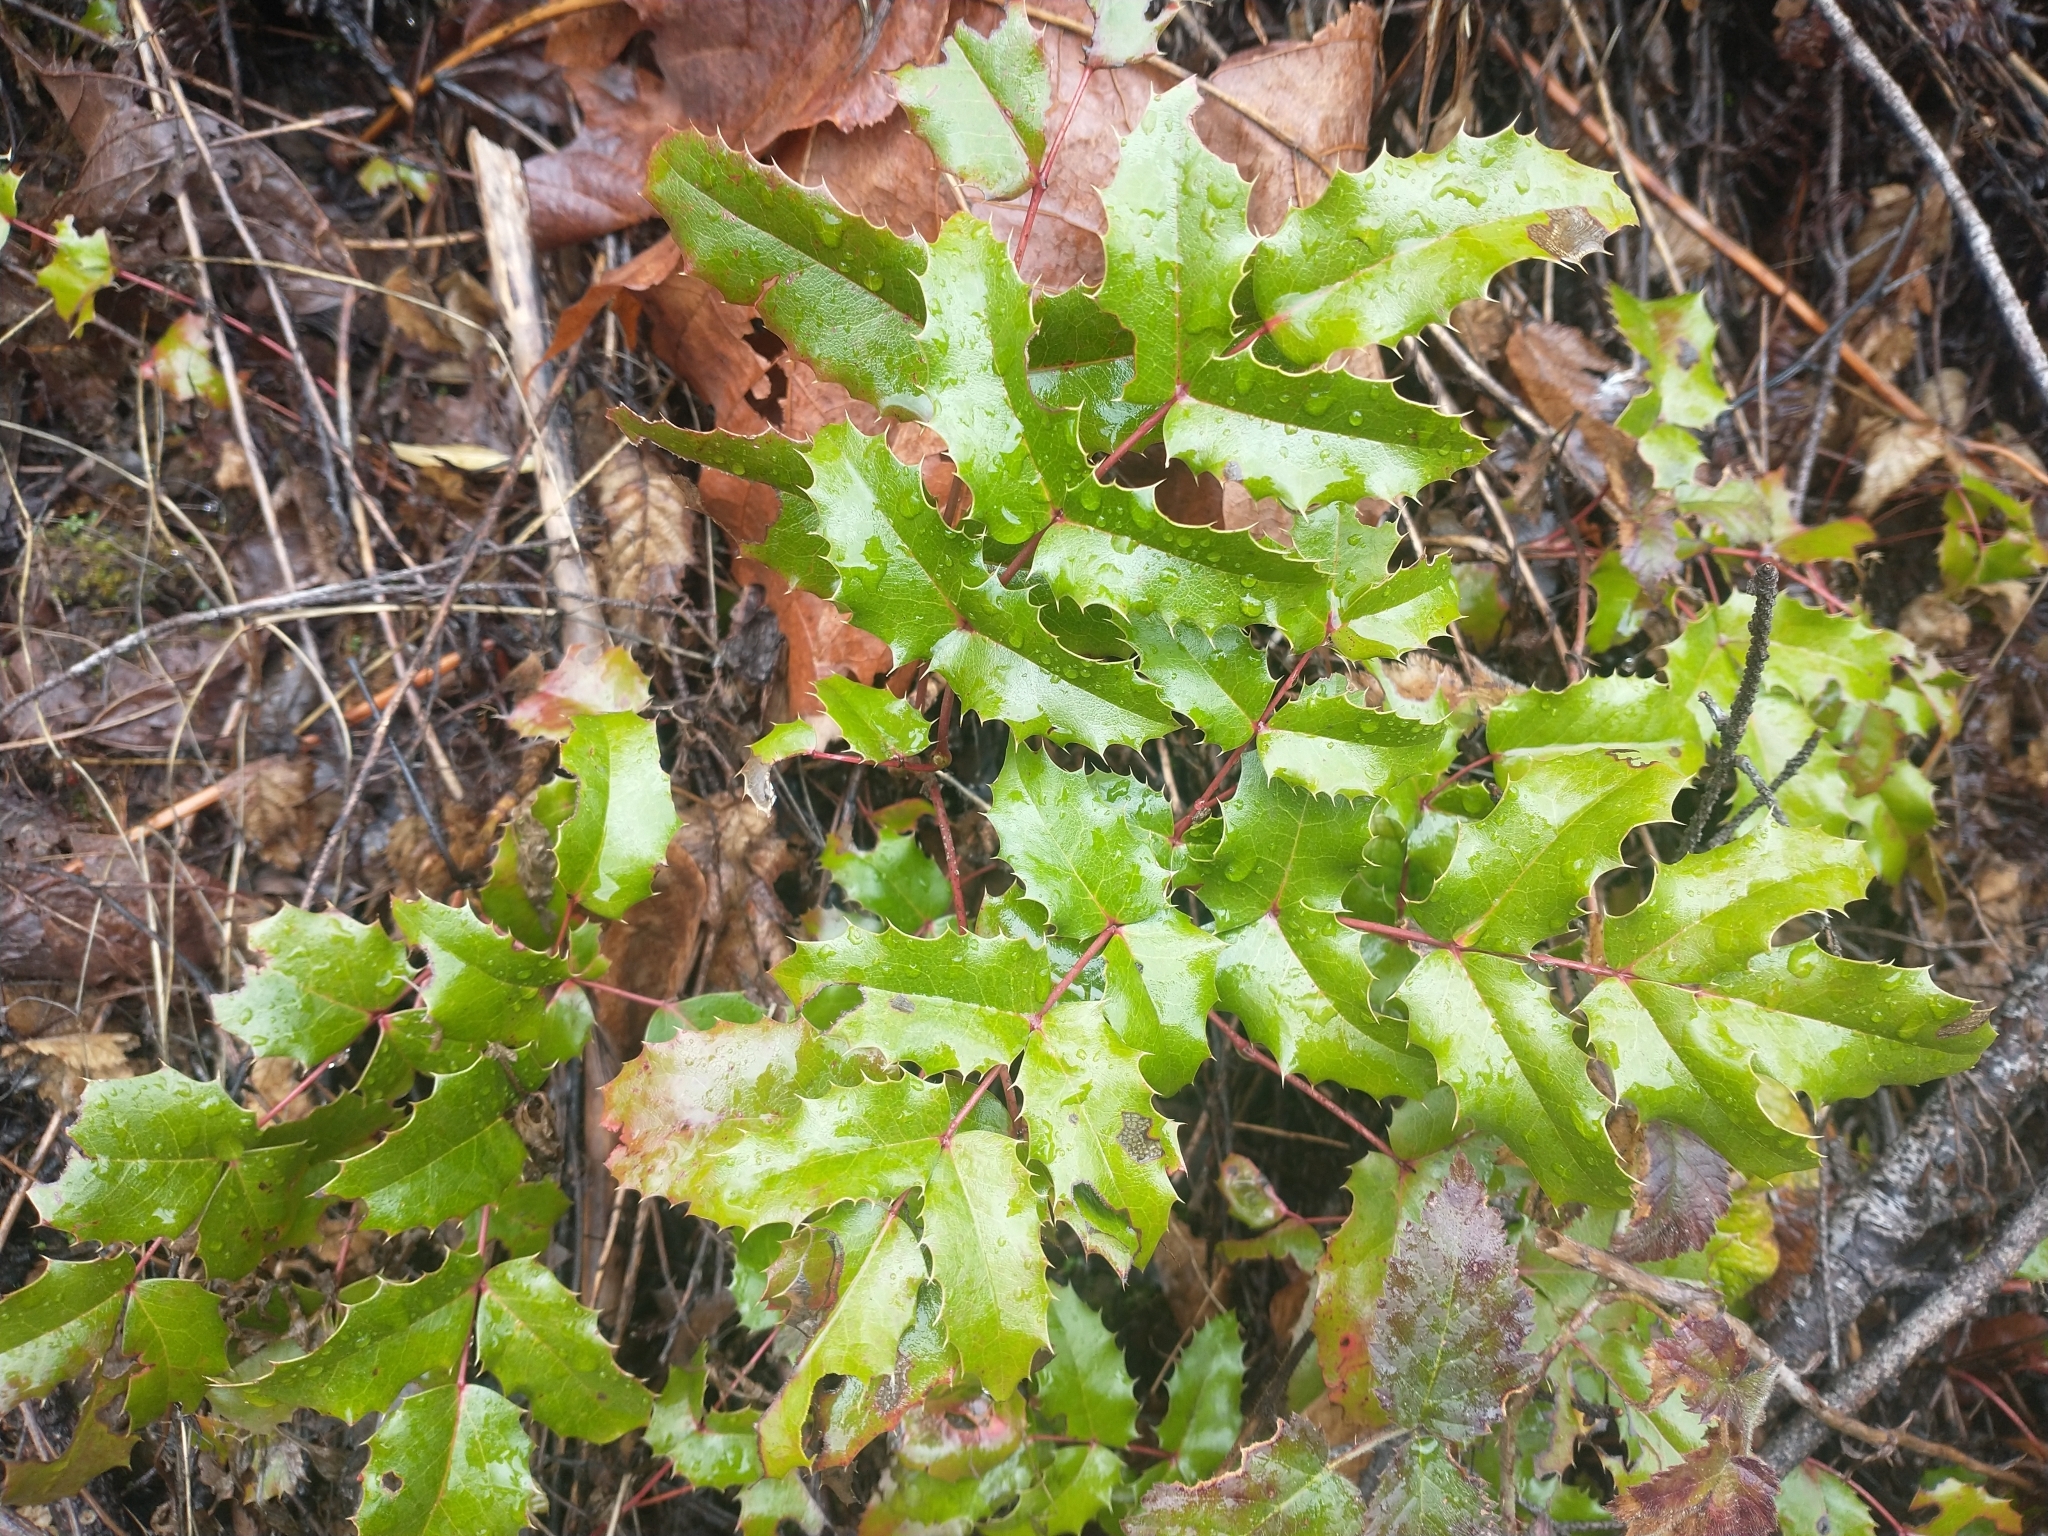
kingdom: Plantae
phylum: Tracheophyta
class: Magnoliopsida
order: Ranunculales
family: Berberidaceae
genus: Mahonia
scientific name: Mahonia aquifolium
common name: Oregon-grape
